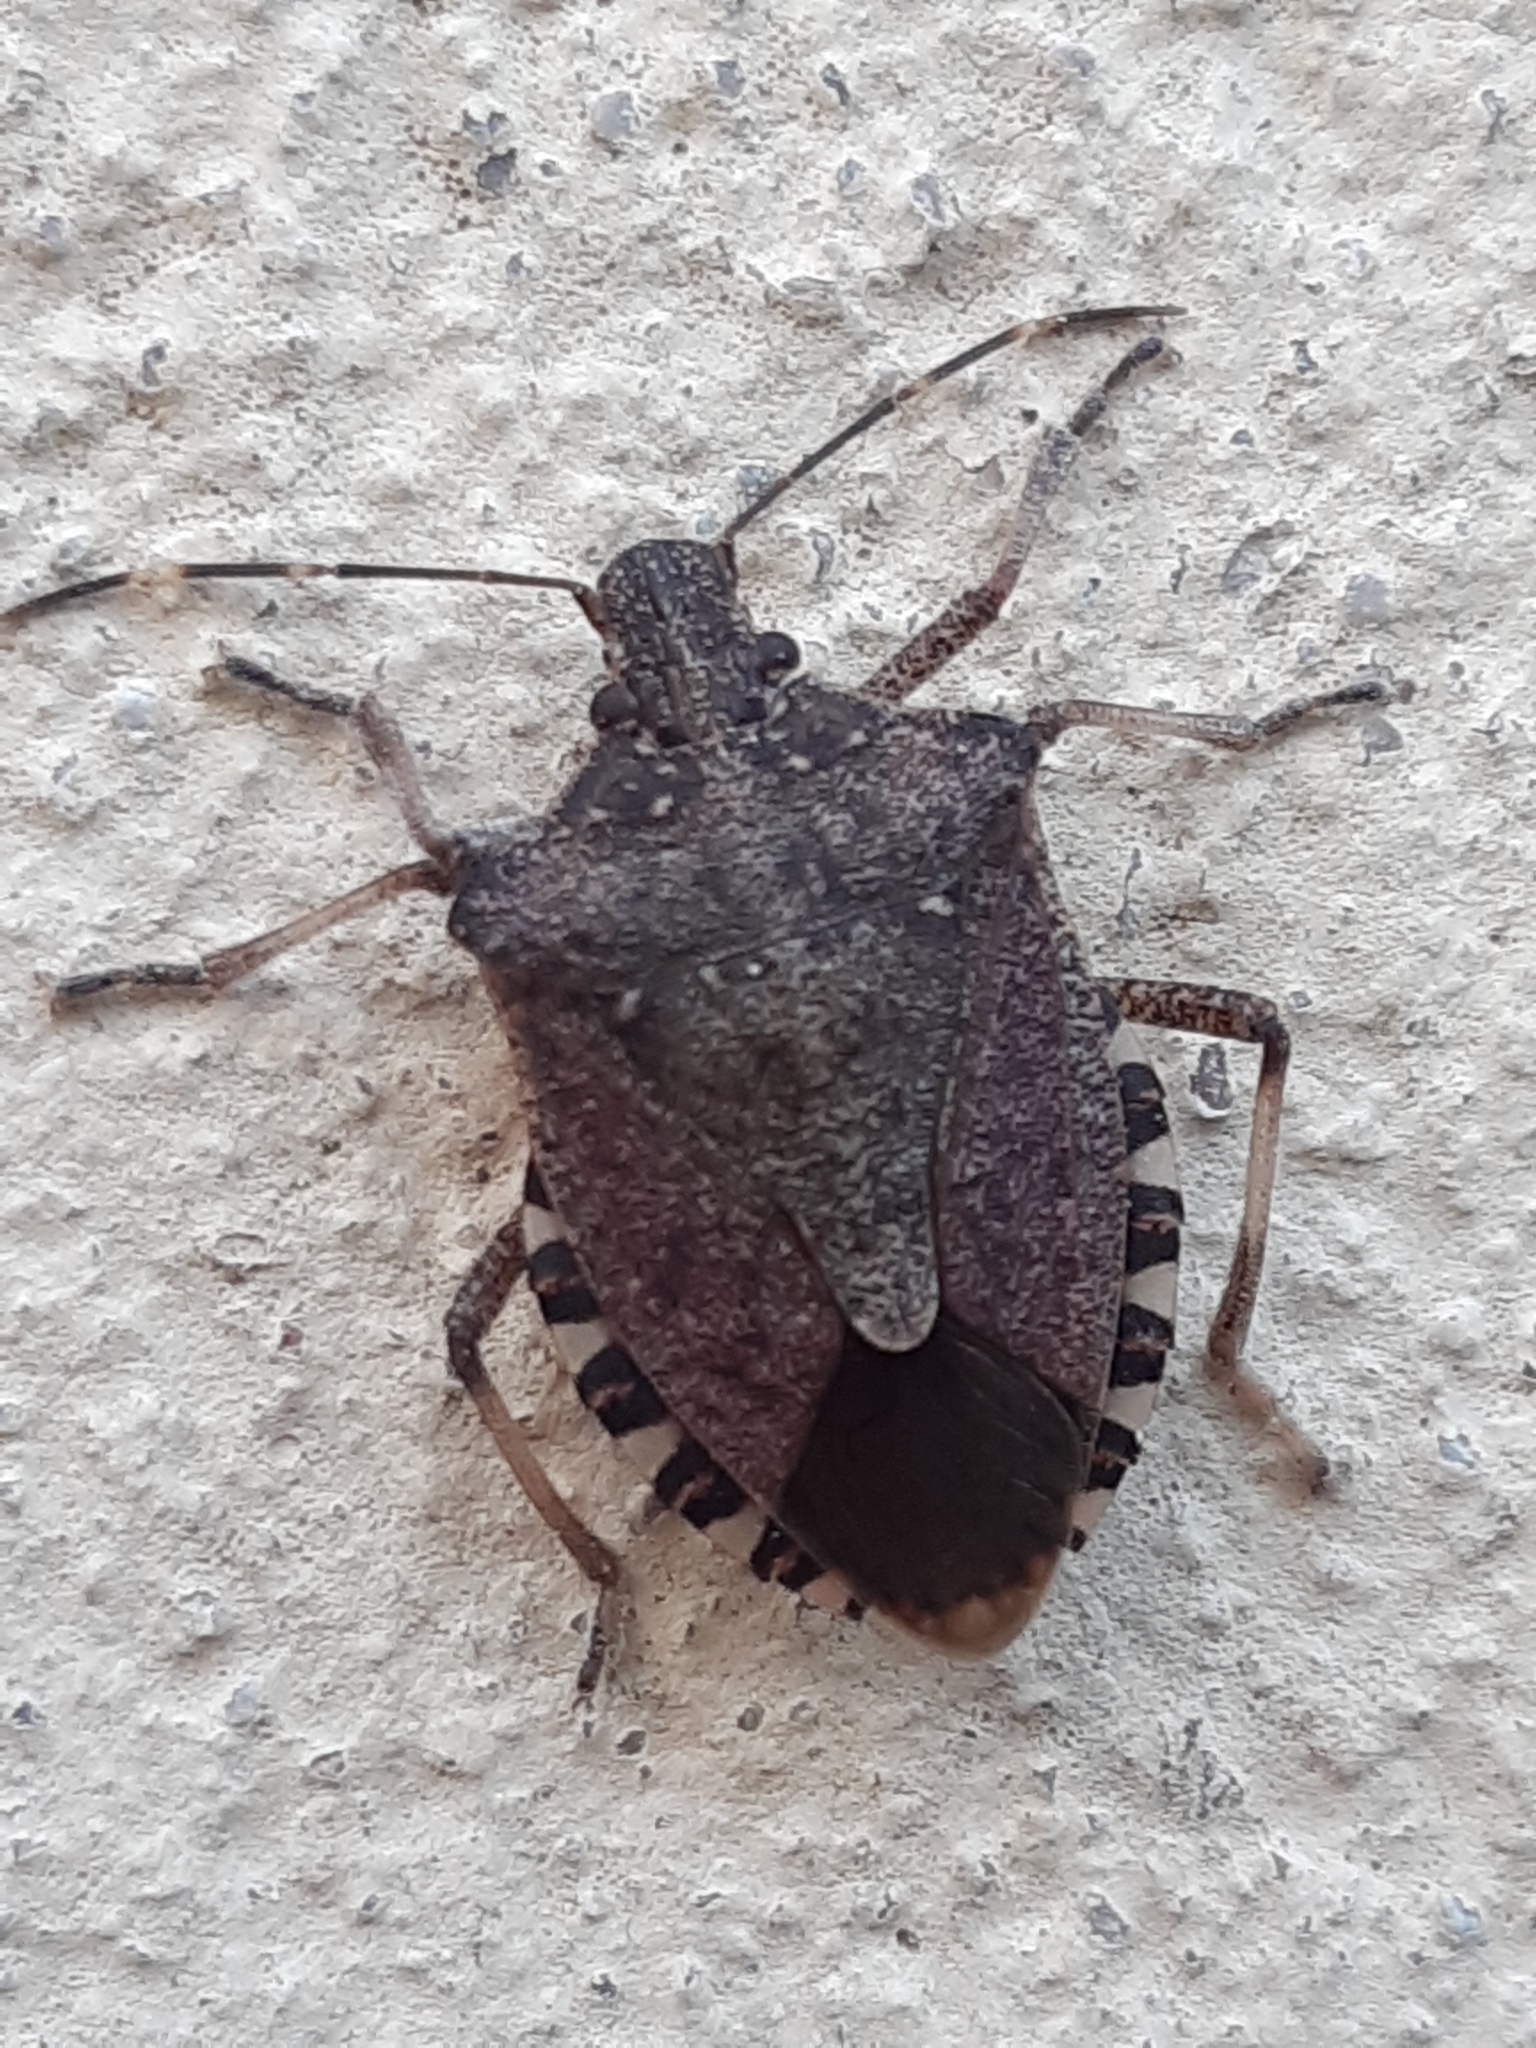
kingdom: Animalia
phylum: Arthropoda
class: Insecta
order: Hemiptera
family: Pentatomidae
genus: Halyomorpha
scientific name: Halyomorpha halys
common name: Brown marmorated stink bug
